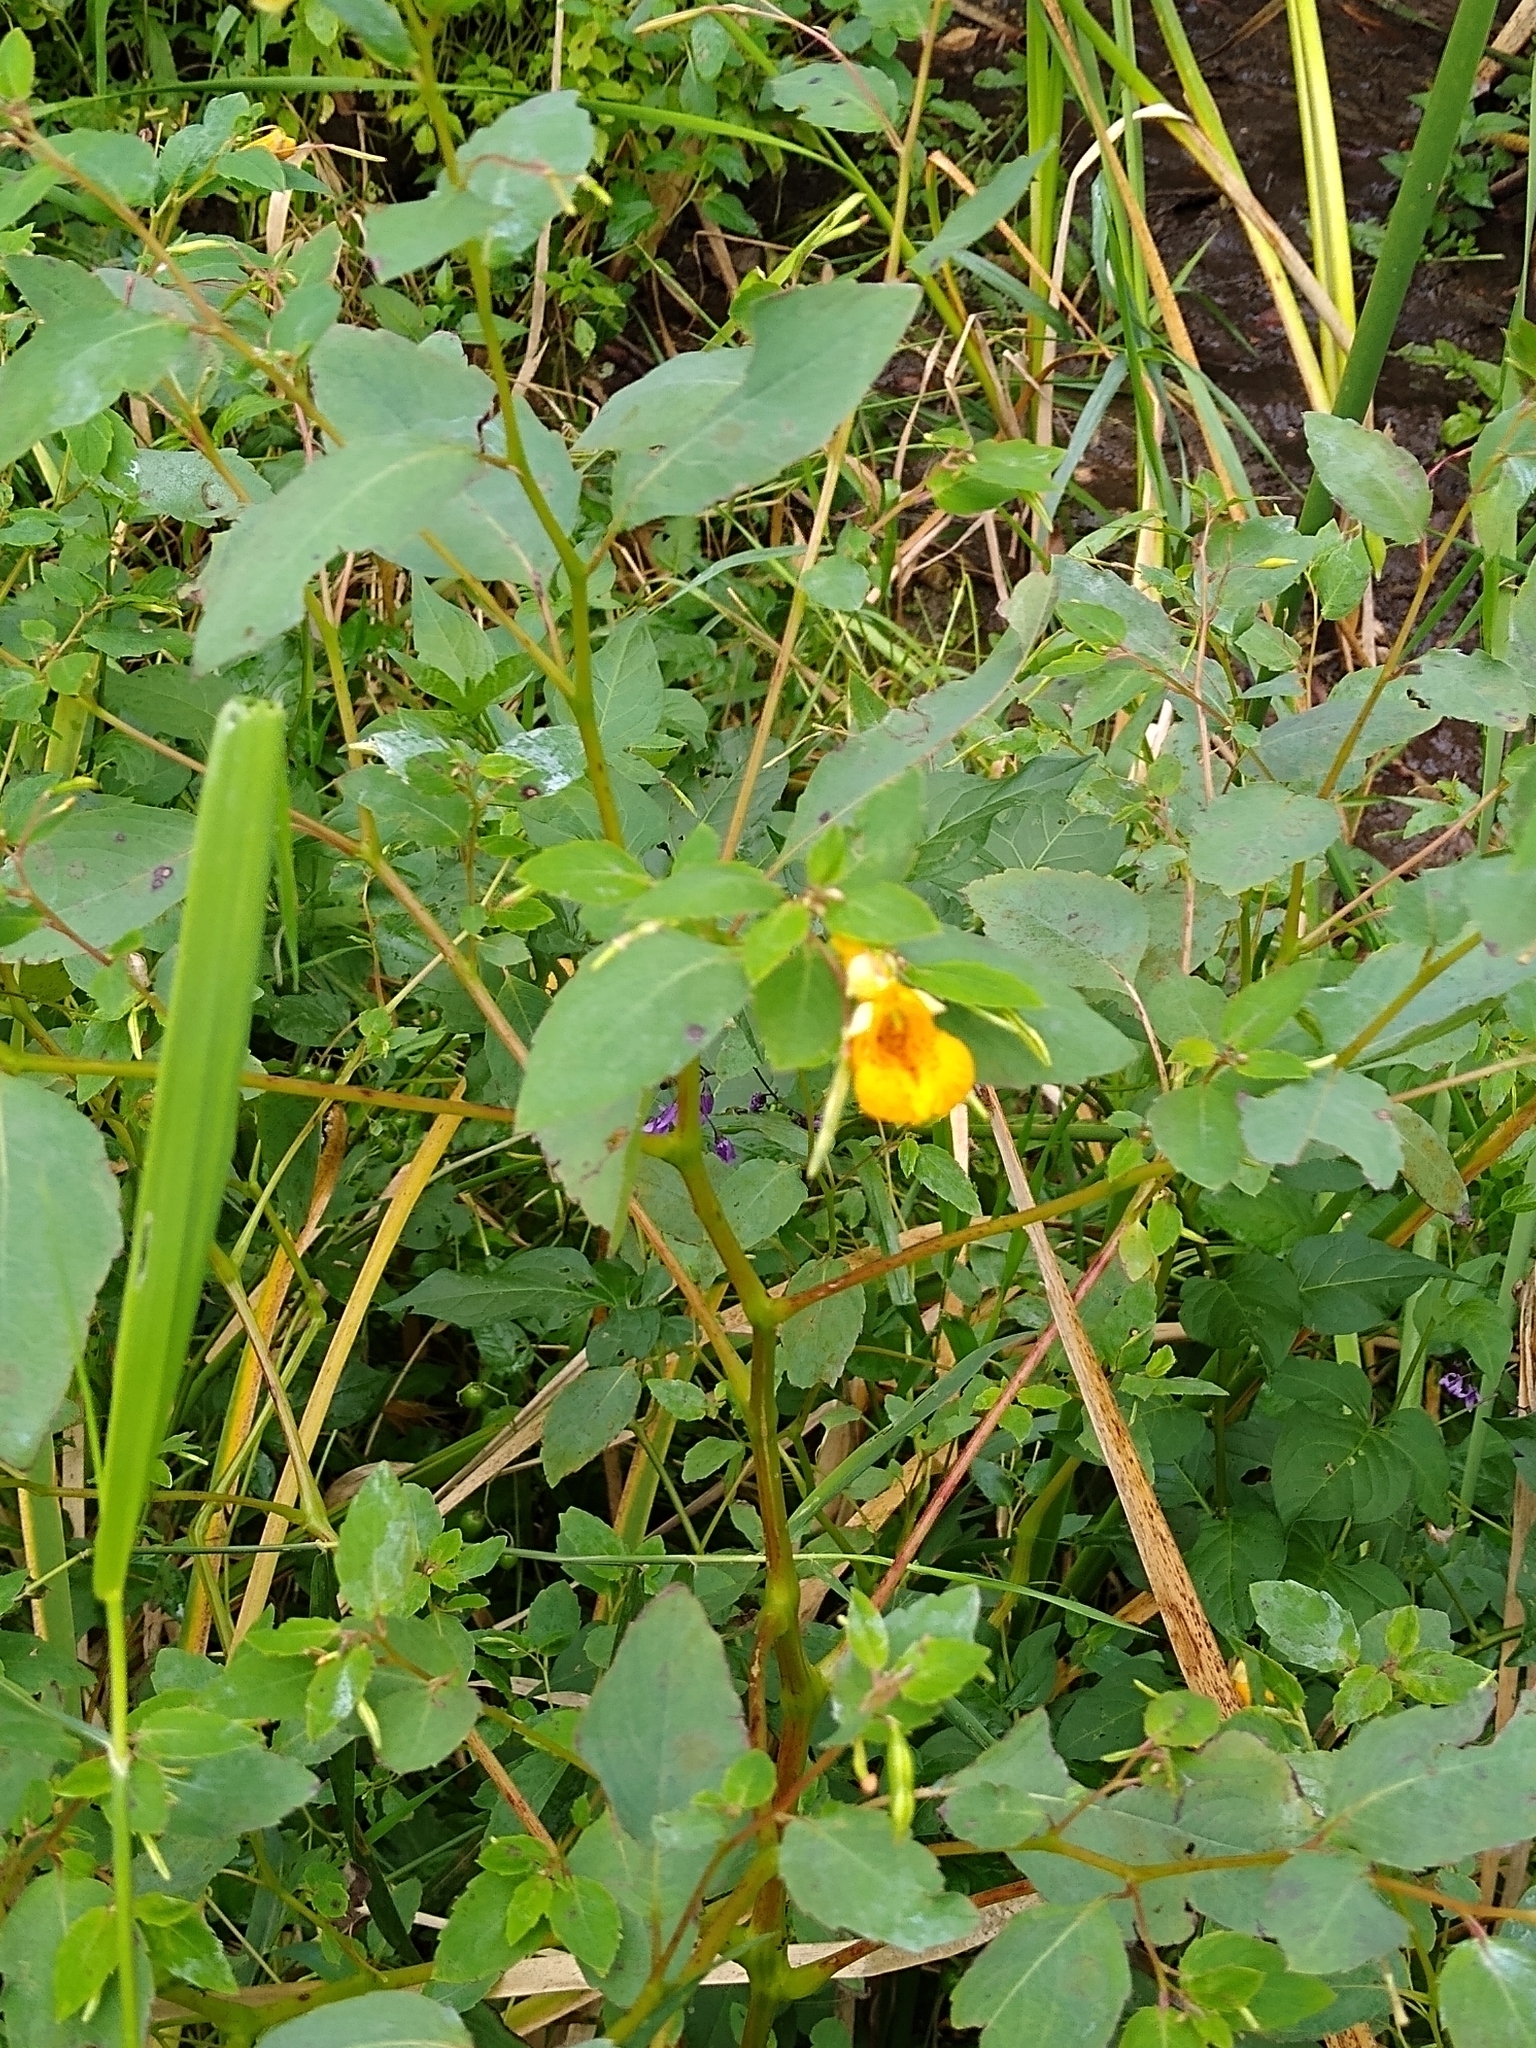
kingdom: Plantae
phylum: Tracheophyta
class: Magnoliopsida
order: Ericales
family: Balsaminaceae
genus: Impatiens
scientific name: Impatiens capensis
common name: Orange balsam
